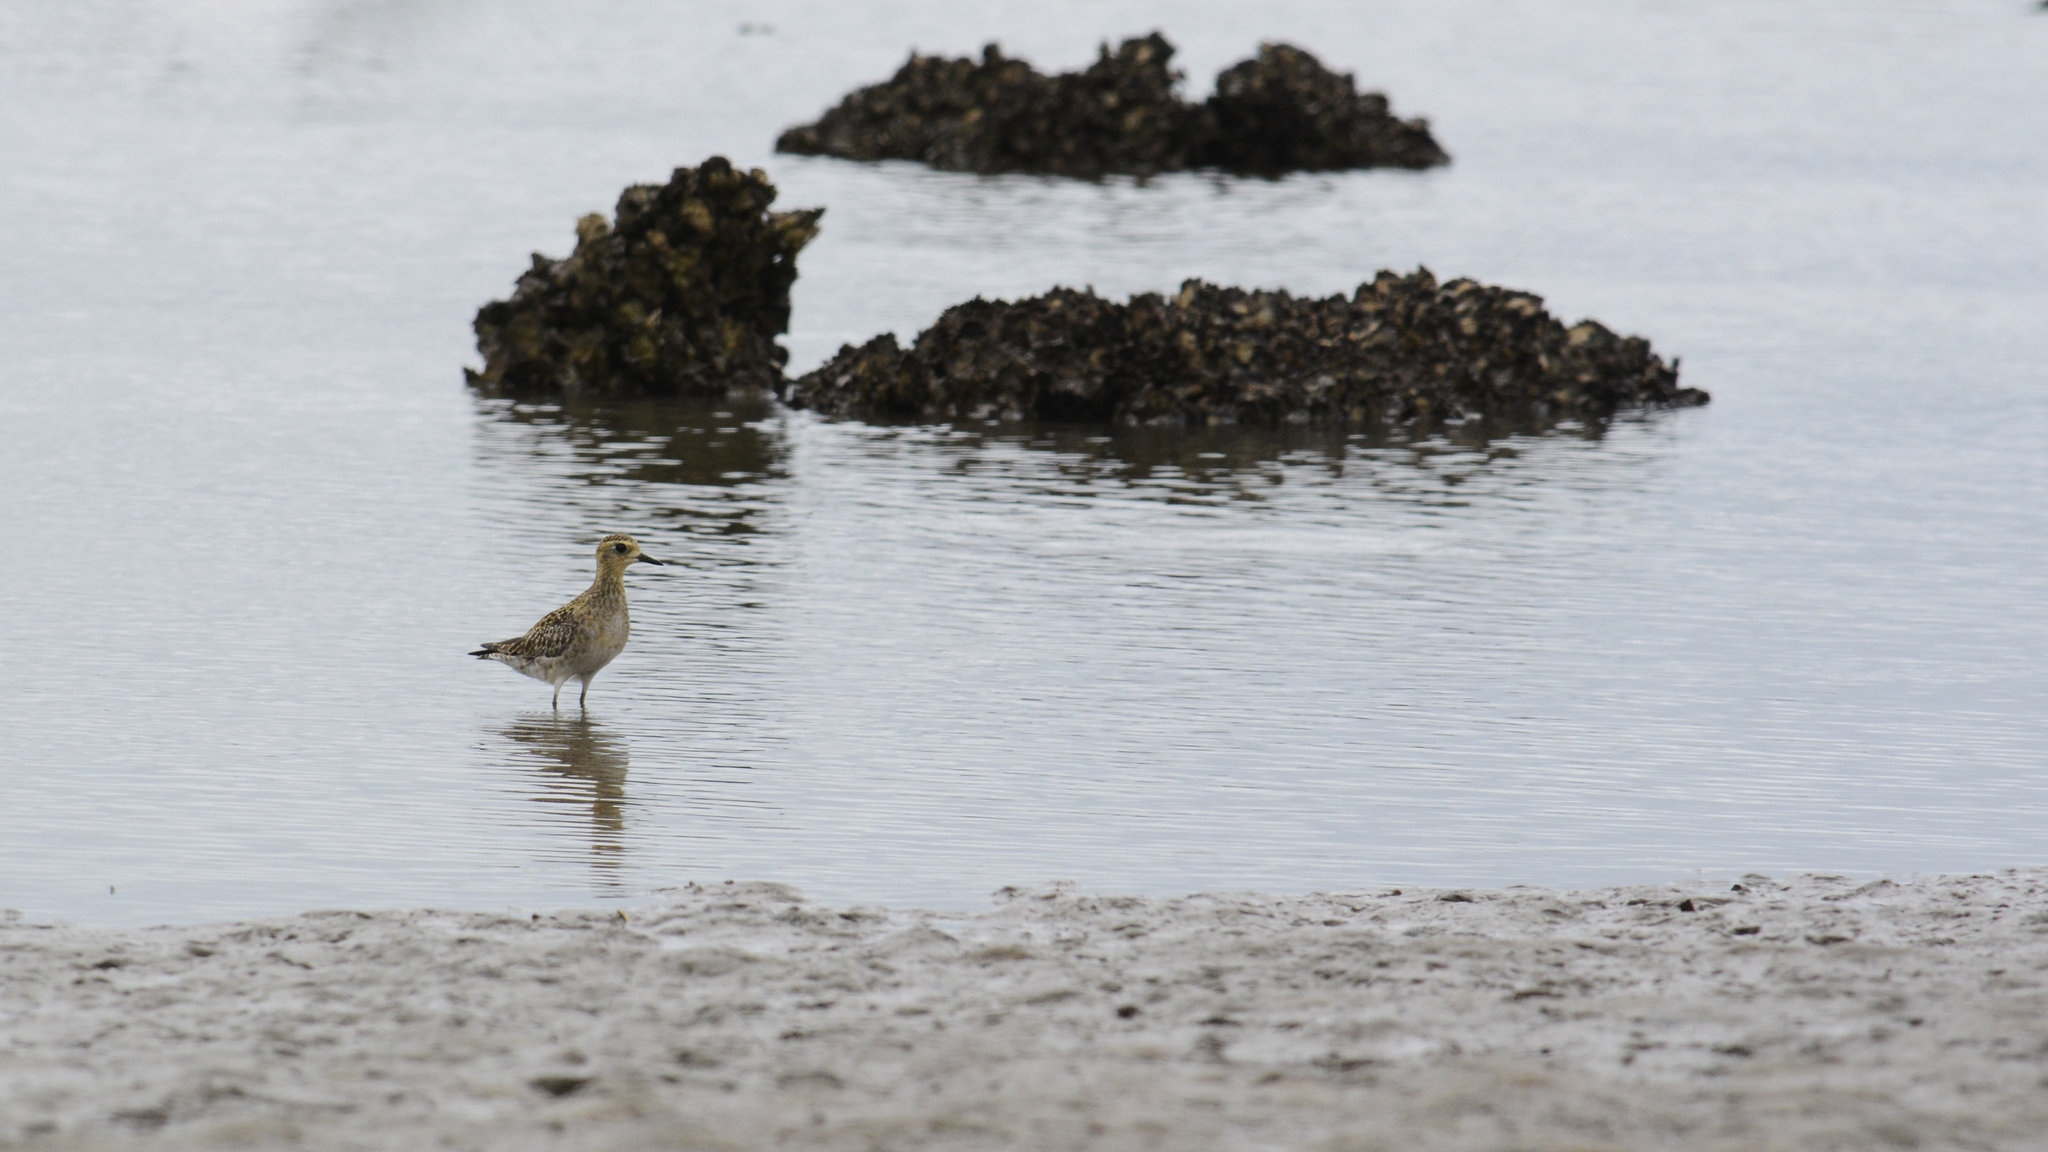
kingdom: Animalia
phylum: Chordata
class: Aves
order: Charadriiformes
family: Charadriidae
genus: Pluvialis
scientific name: Pluvialis fulva
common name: Pacific golden plover
